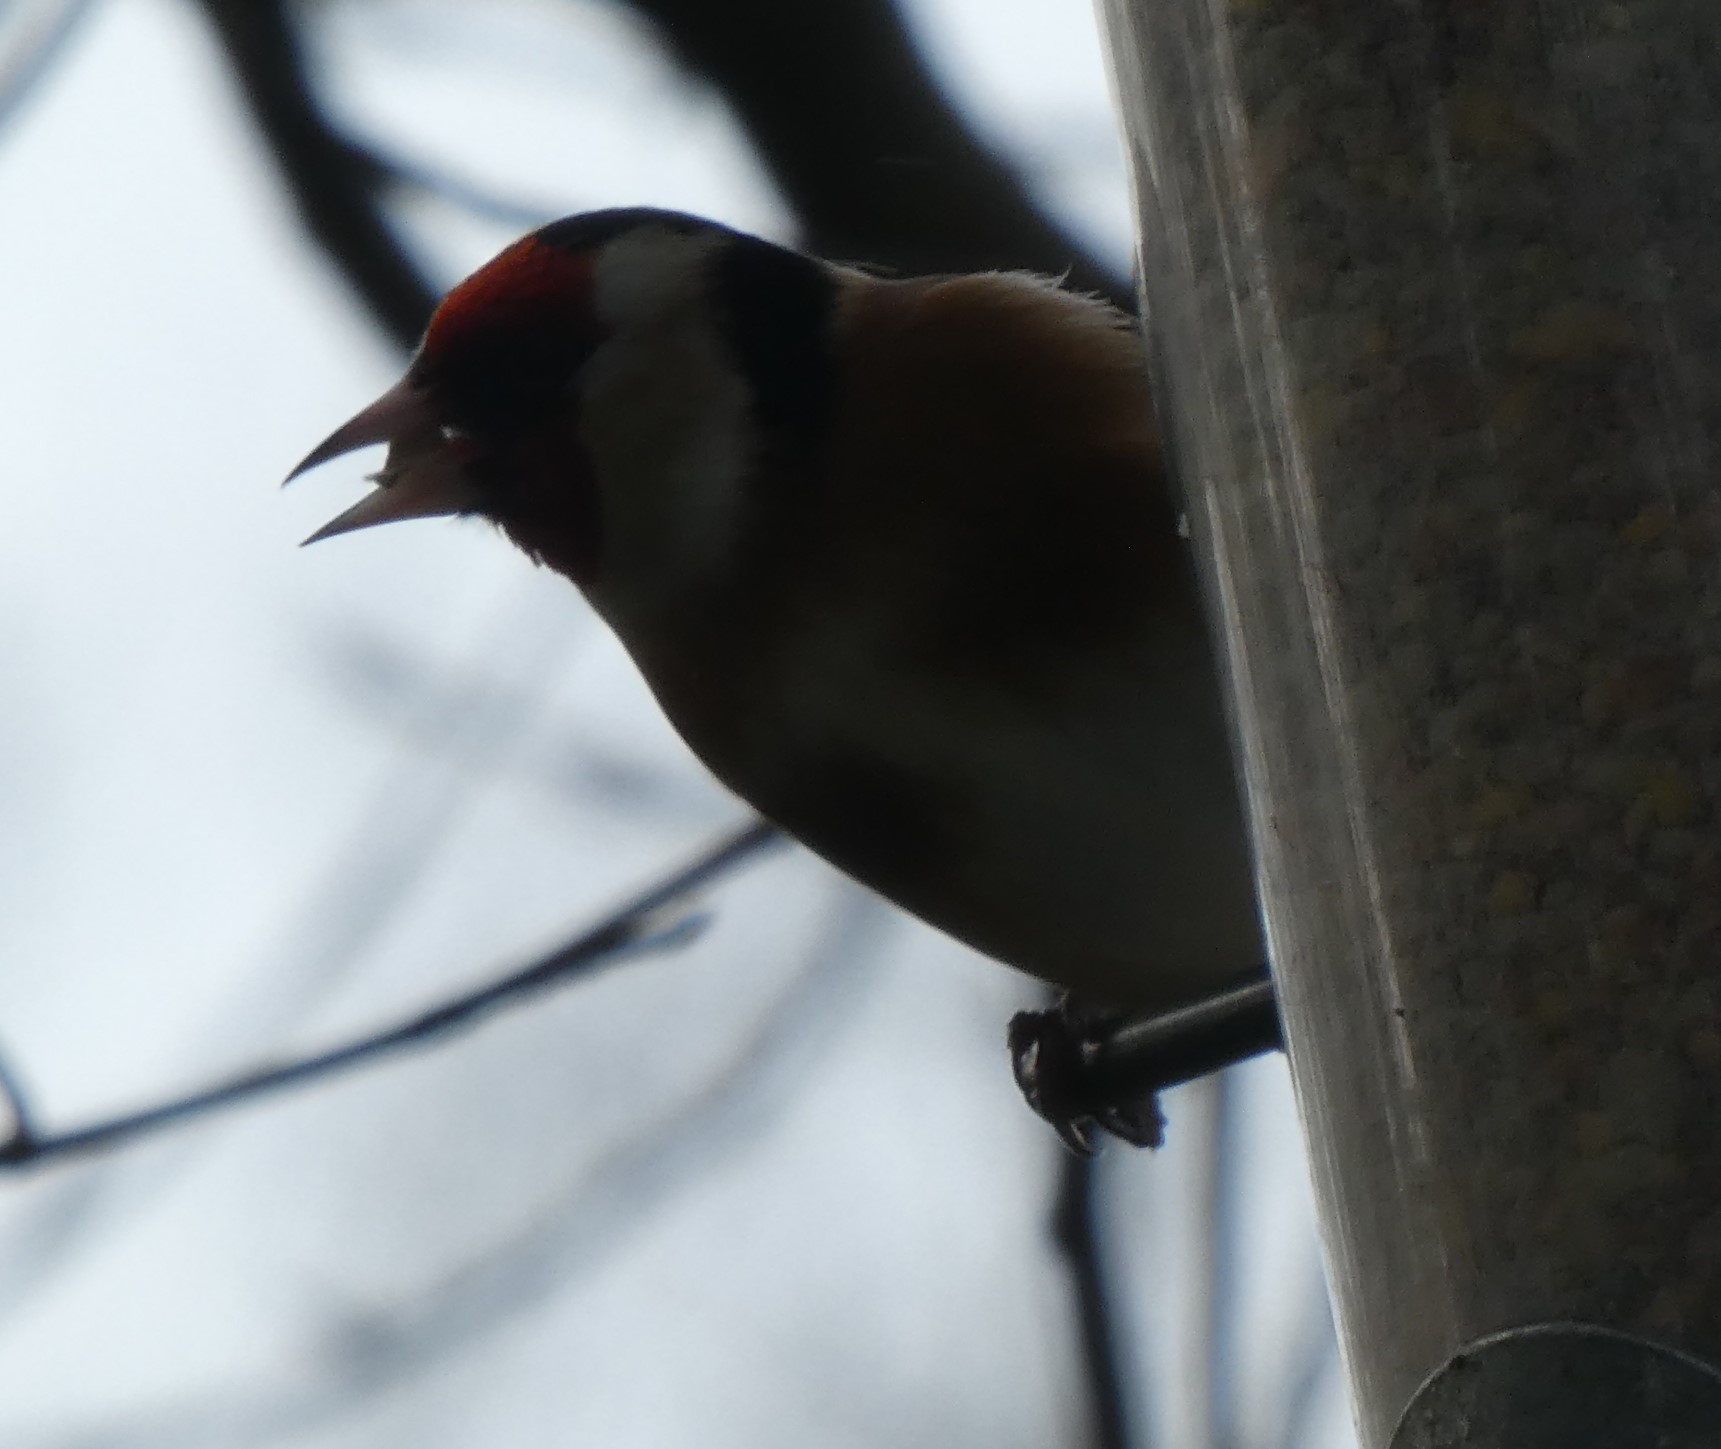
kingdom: Animalia
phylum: Chordata
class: Aves
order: Passeriformes
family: Fringillidae
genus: Carduelis
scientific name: Carduelis carduelis
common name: European goldfinch
